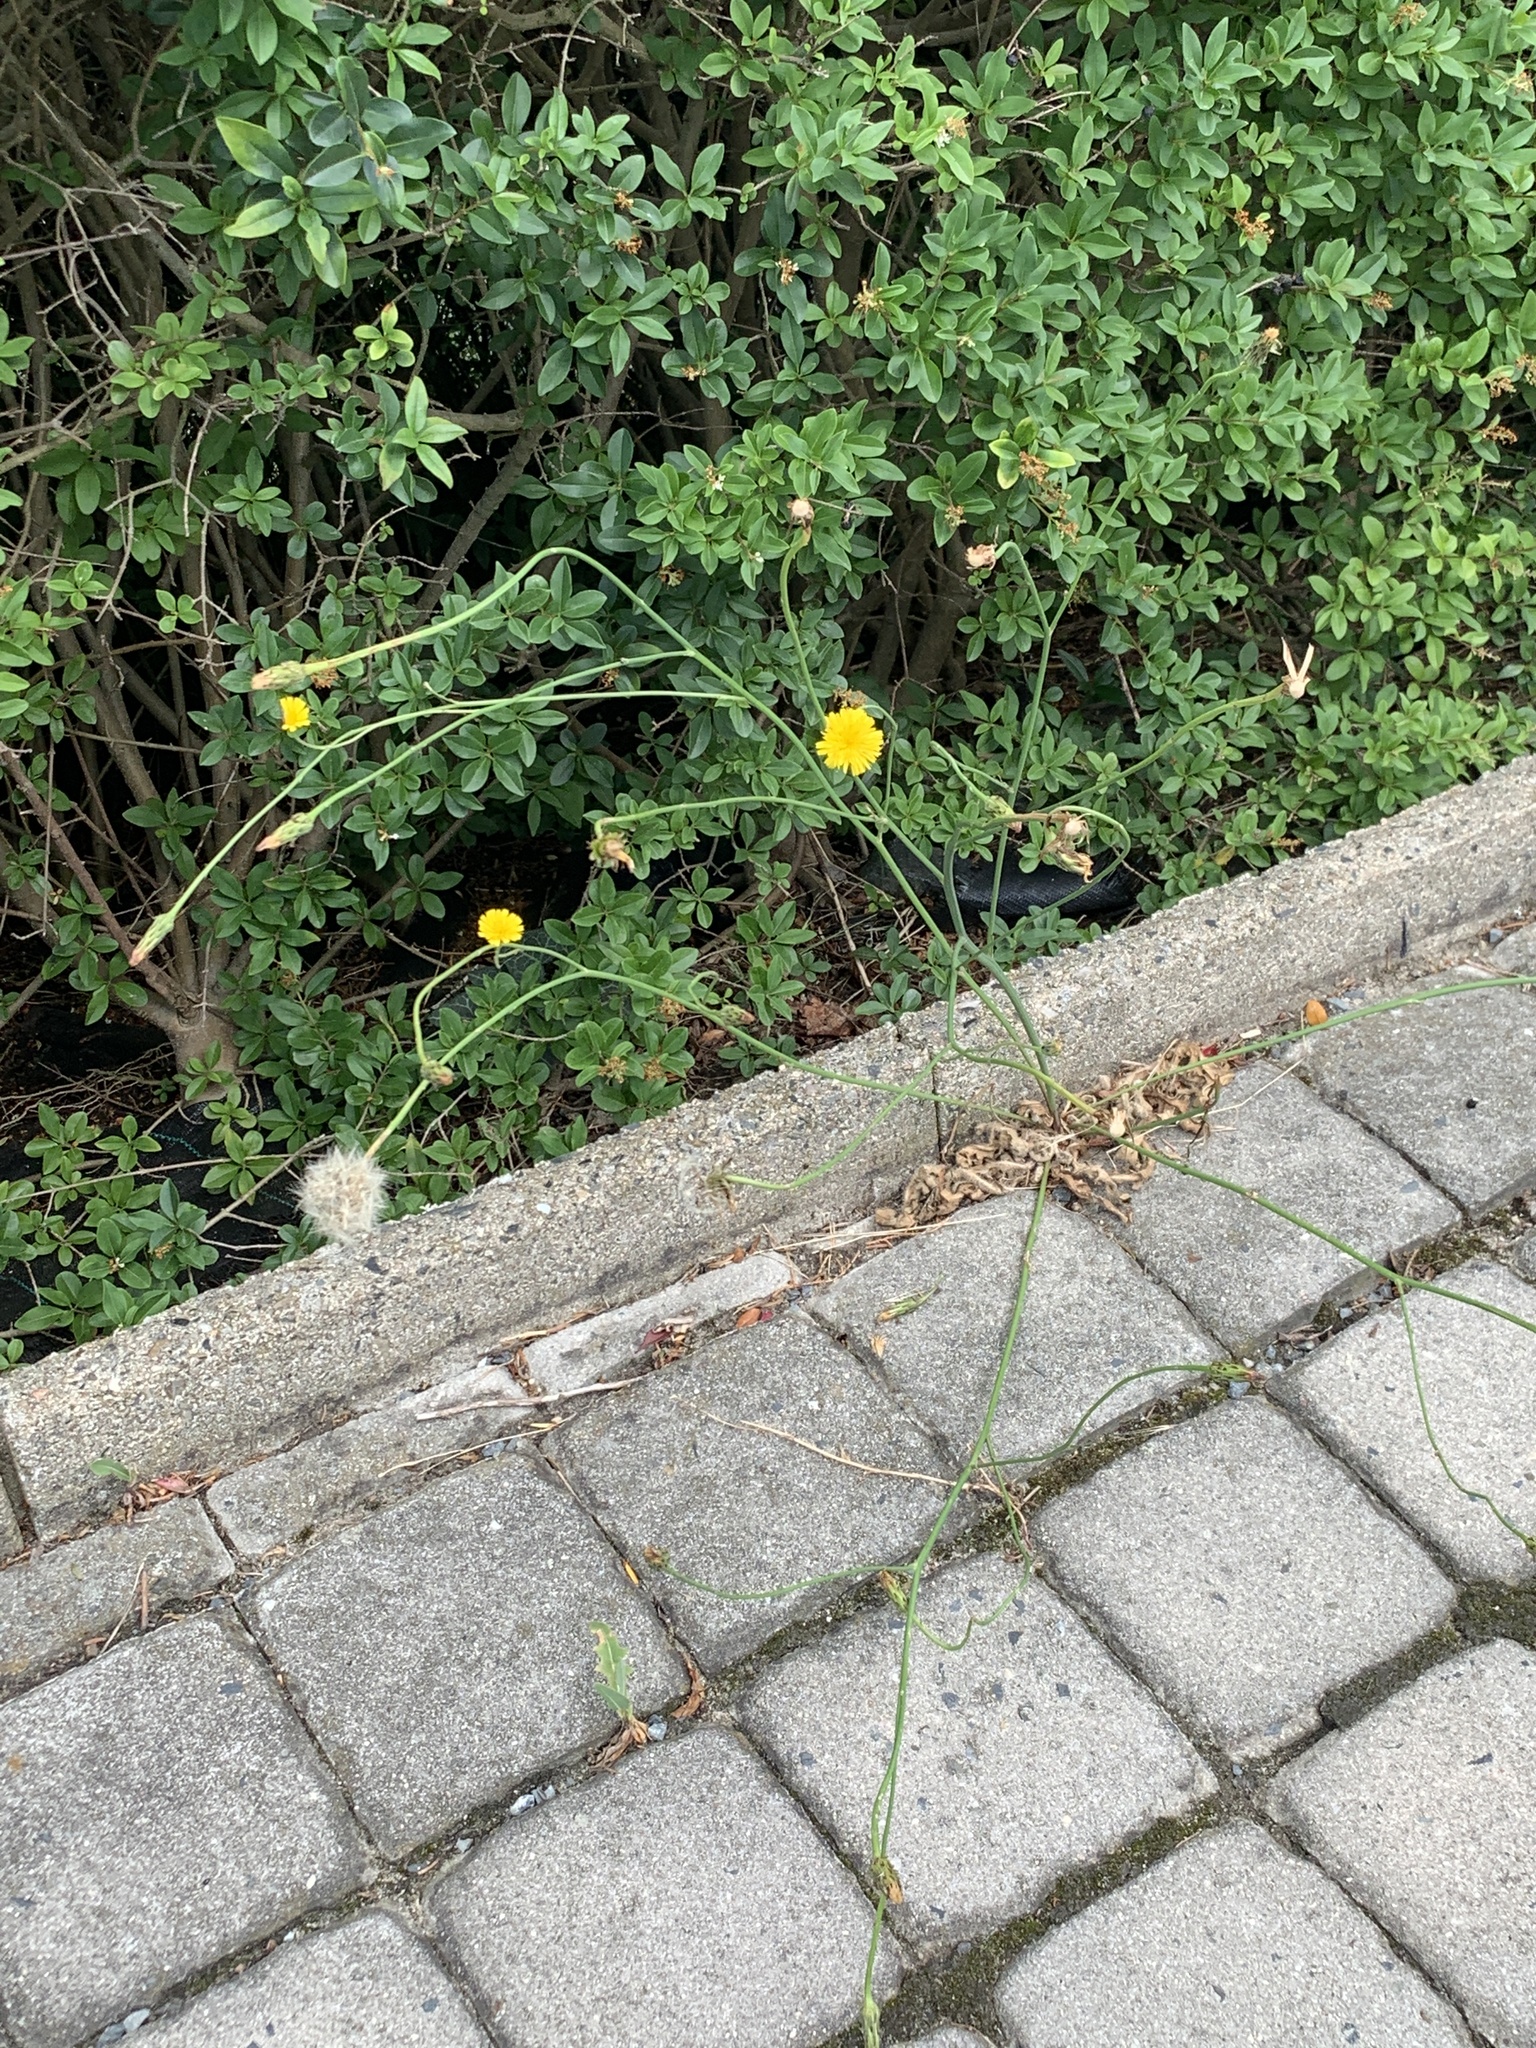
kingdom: Plantae
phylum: Tracheophyta
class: Magnoliopsida
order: Asterales
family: Asteraceae
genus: Hypochaeris
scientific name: Hypochaeris radicata
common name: Flatweed
